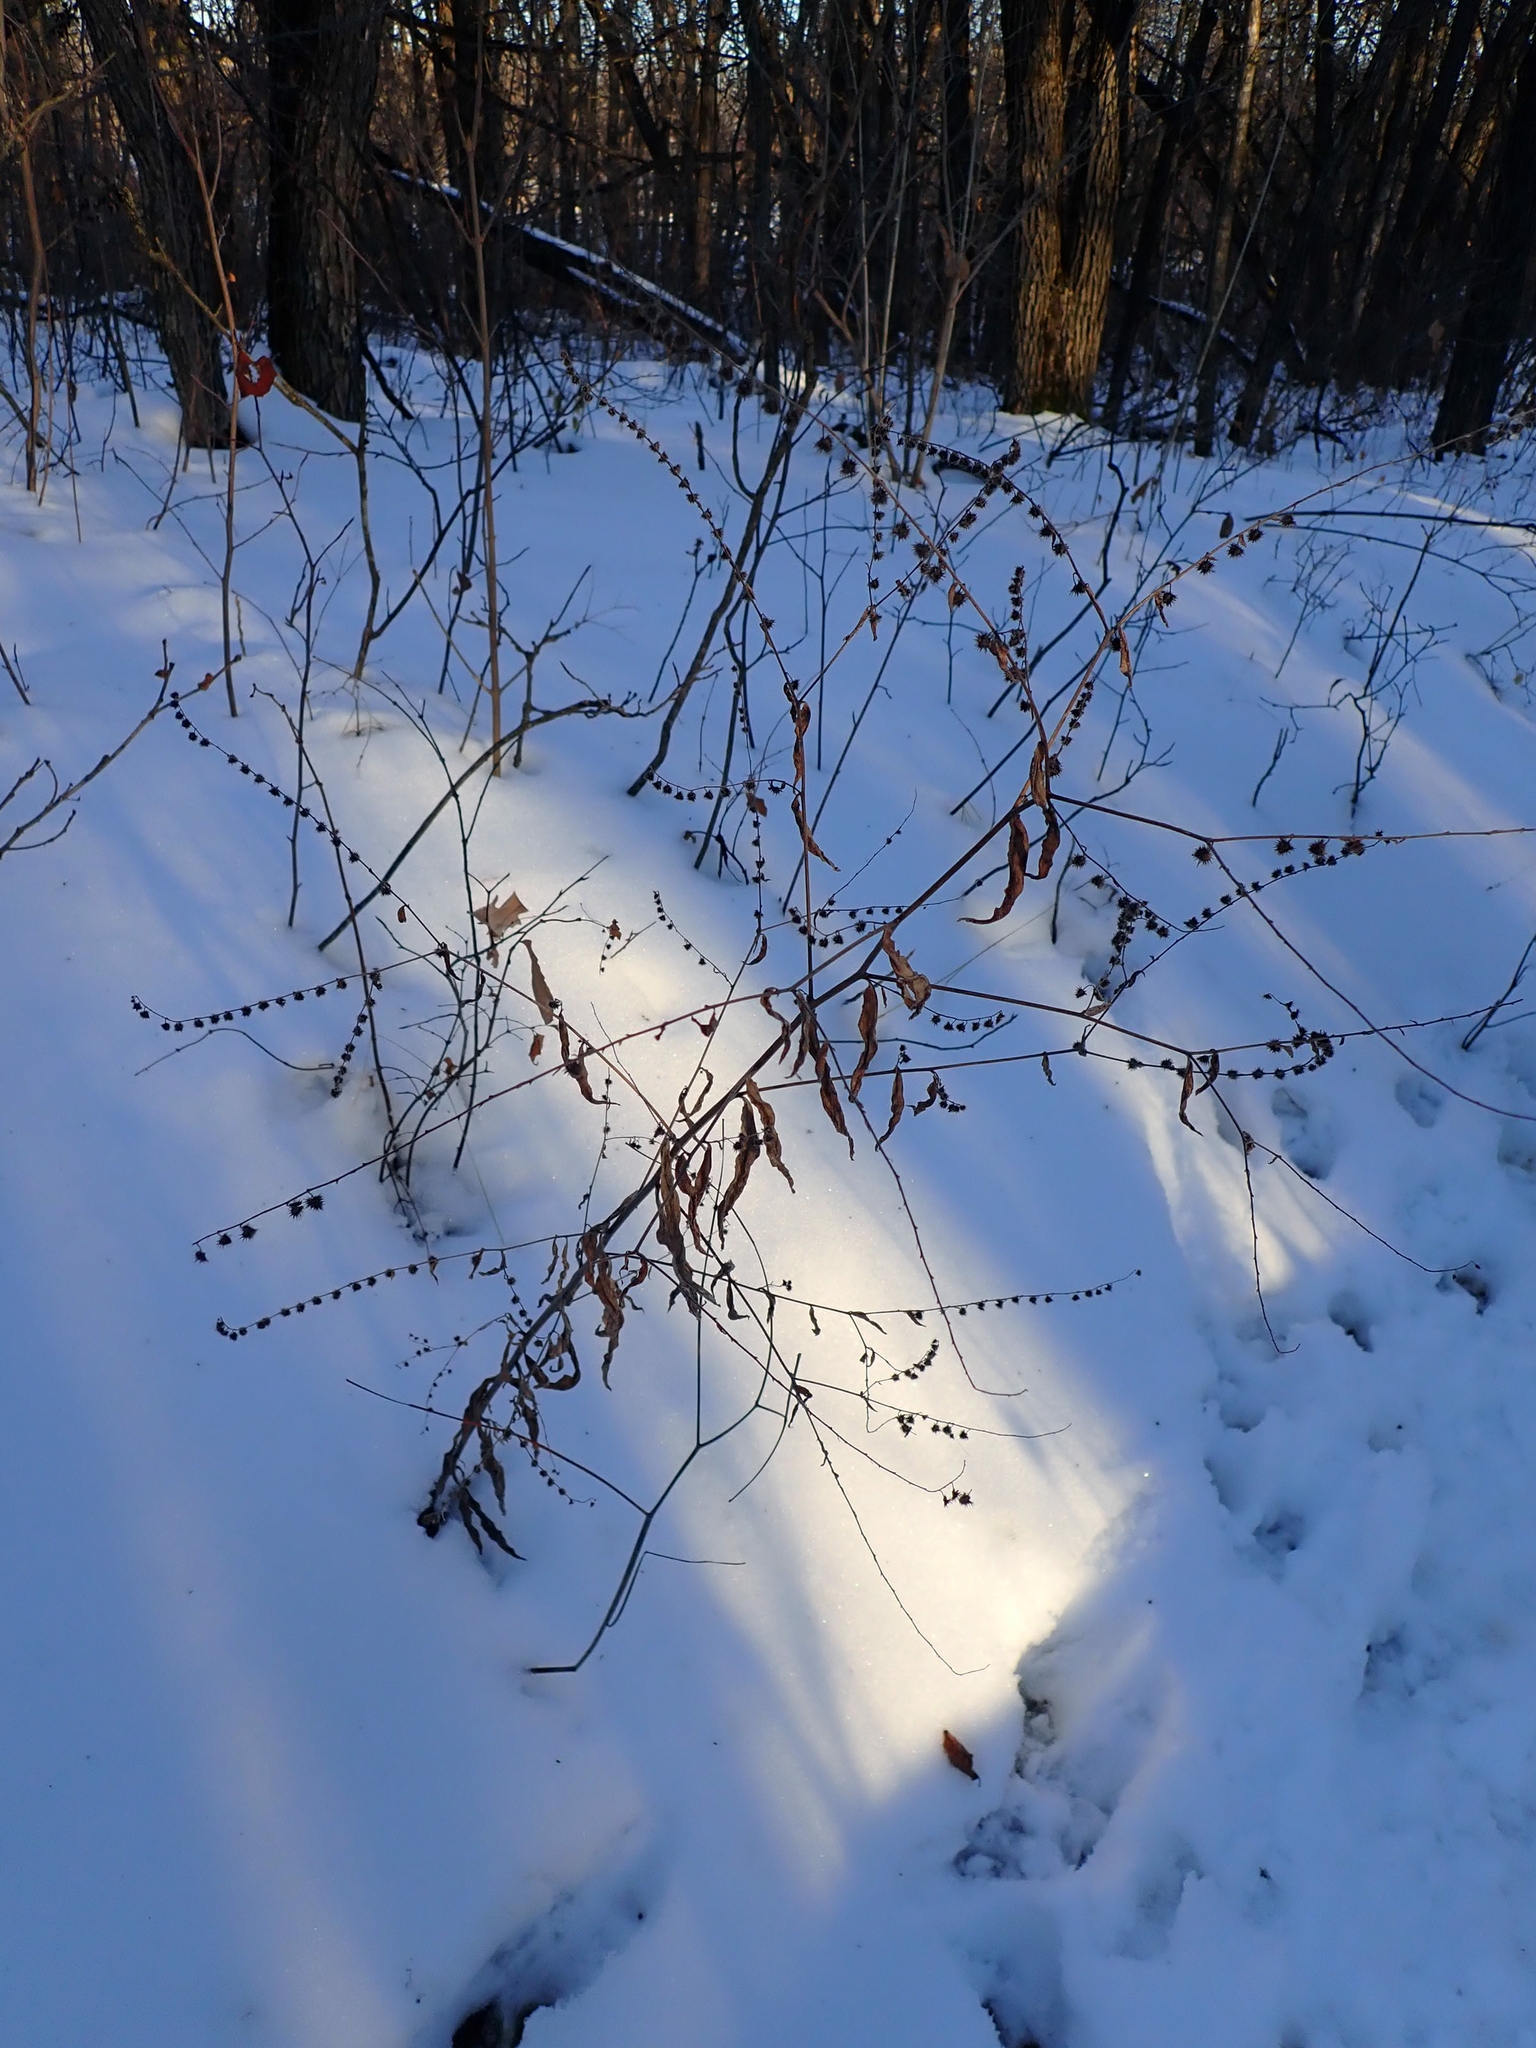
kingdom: Plantae
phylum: Tracheophyta
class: Magnoliopsida
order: Boraginales
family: Boraginaceae
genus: Hackelia
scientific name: Hackelia deflexa
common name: Nodding stickseed
